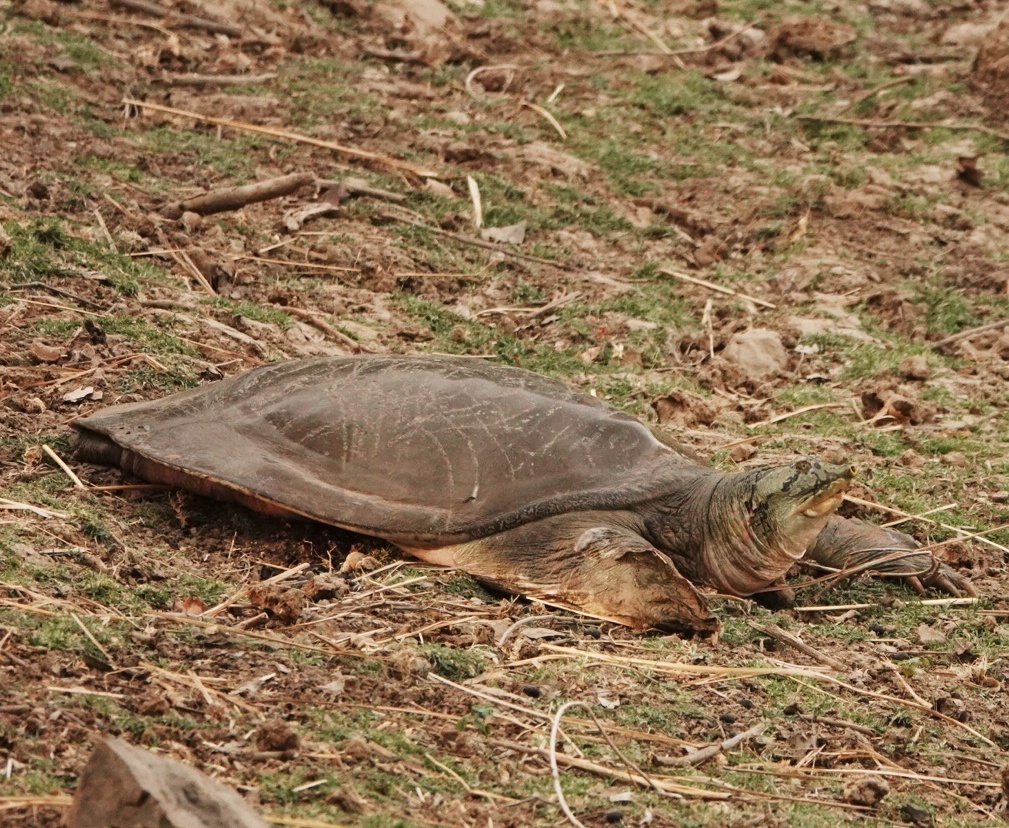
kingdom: Animalia
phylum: Chordata
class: Testudines
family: Trionychidae
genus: Nilssonia
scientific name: Nilssonia gangetica
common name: Indian softshell turtle
